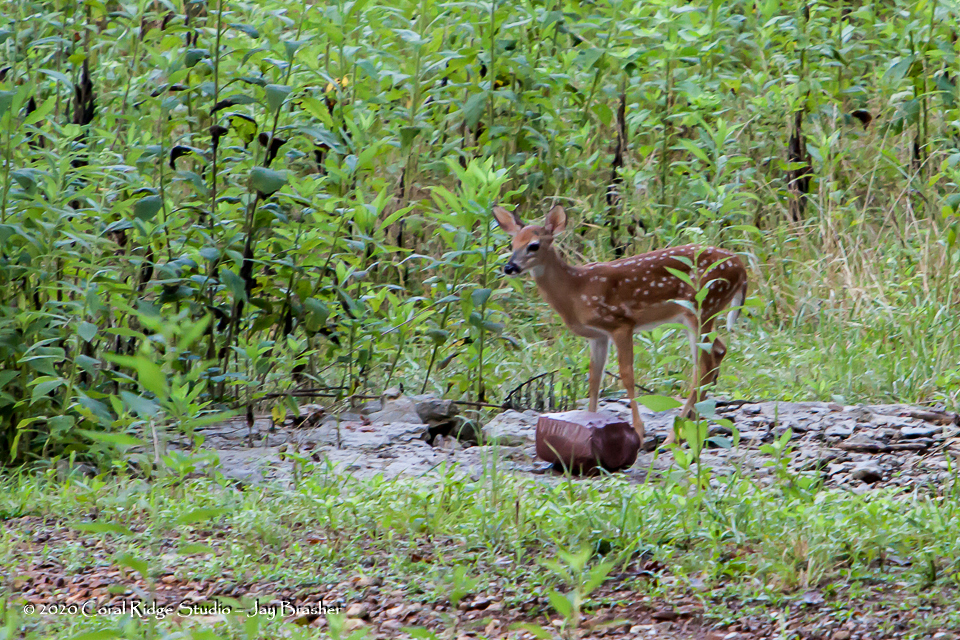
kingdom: Animalia
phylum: Chordata
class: Mammalia
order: Artiodactyla
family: Cervidae
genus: Odocoileus
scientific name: Odocoileus virginianus
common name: White-tailed deer
